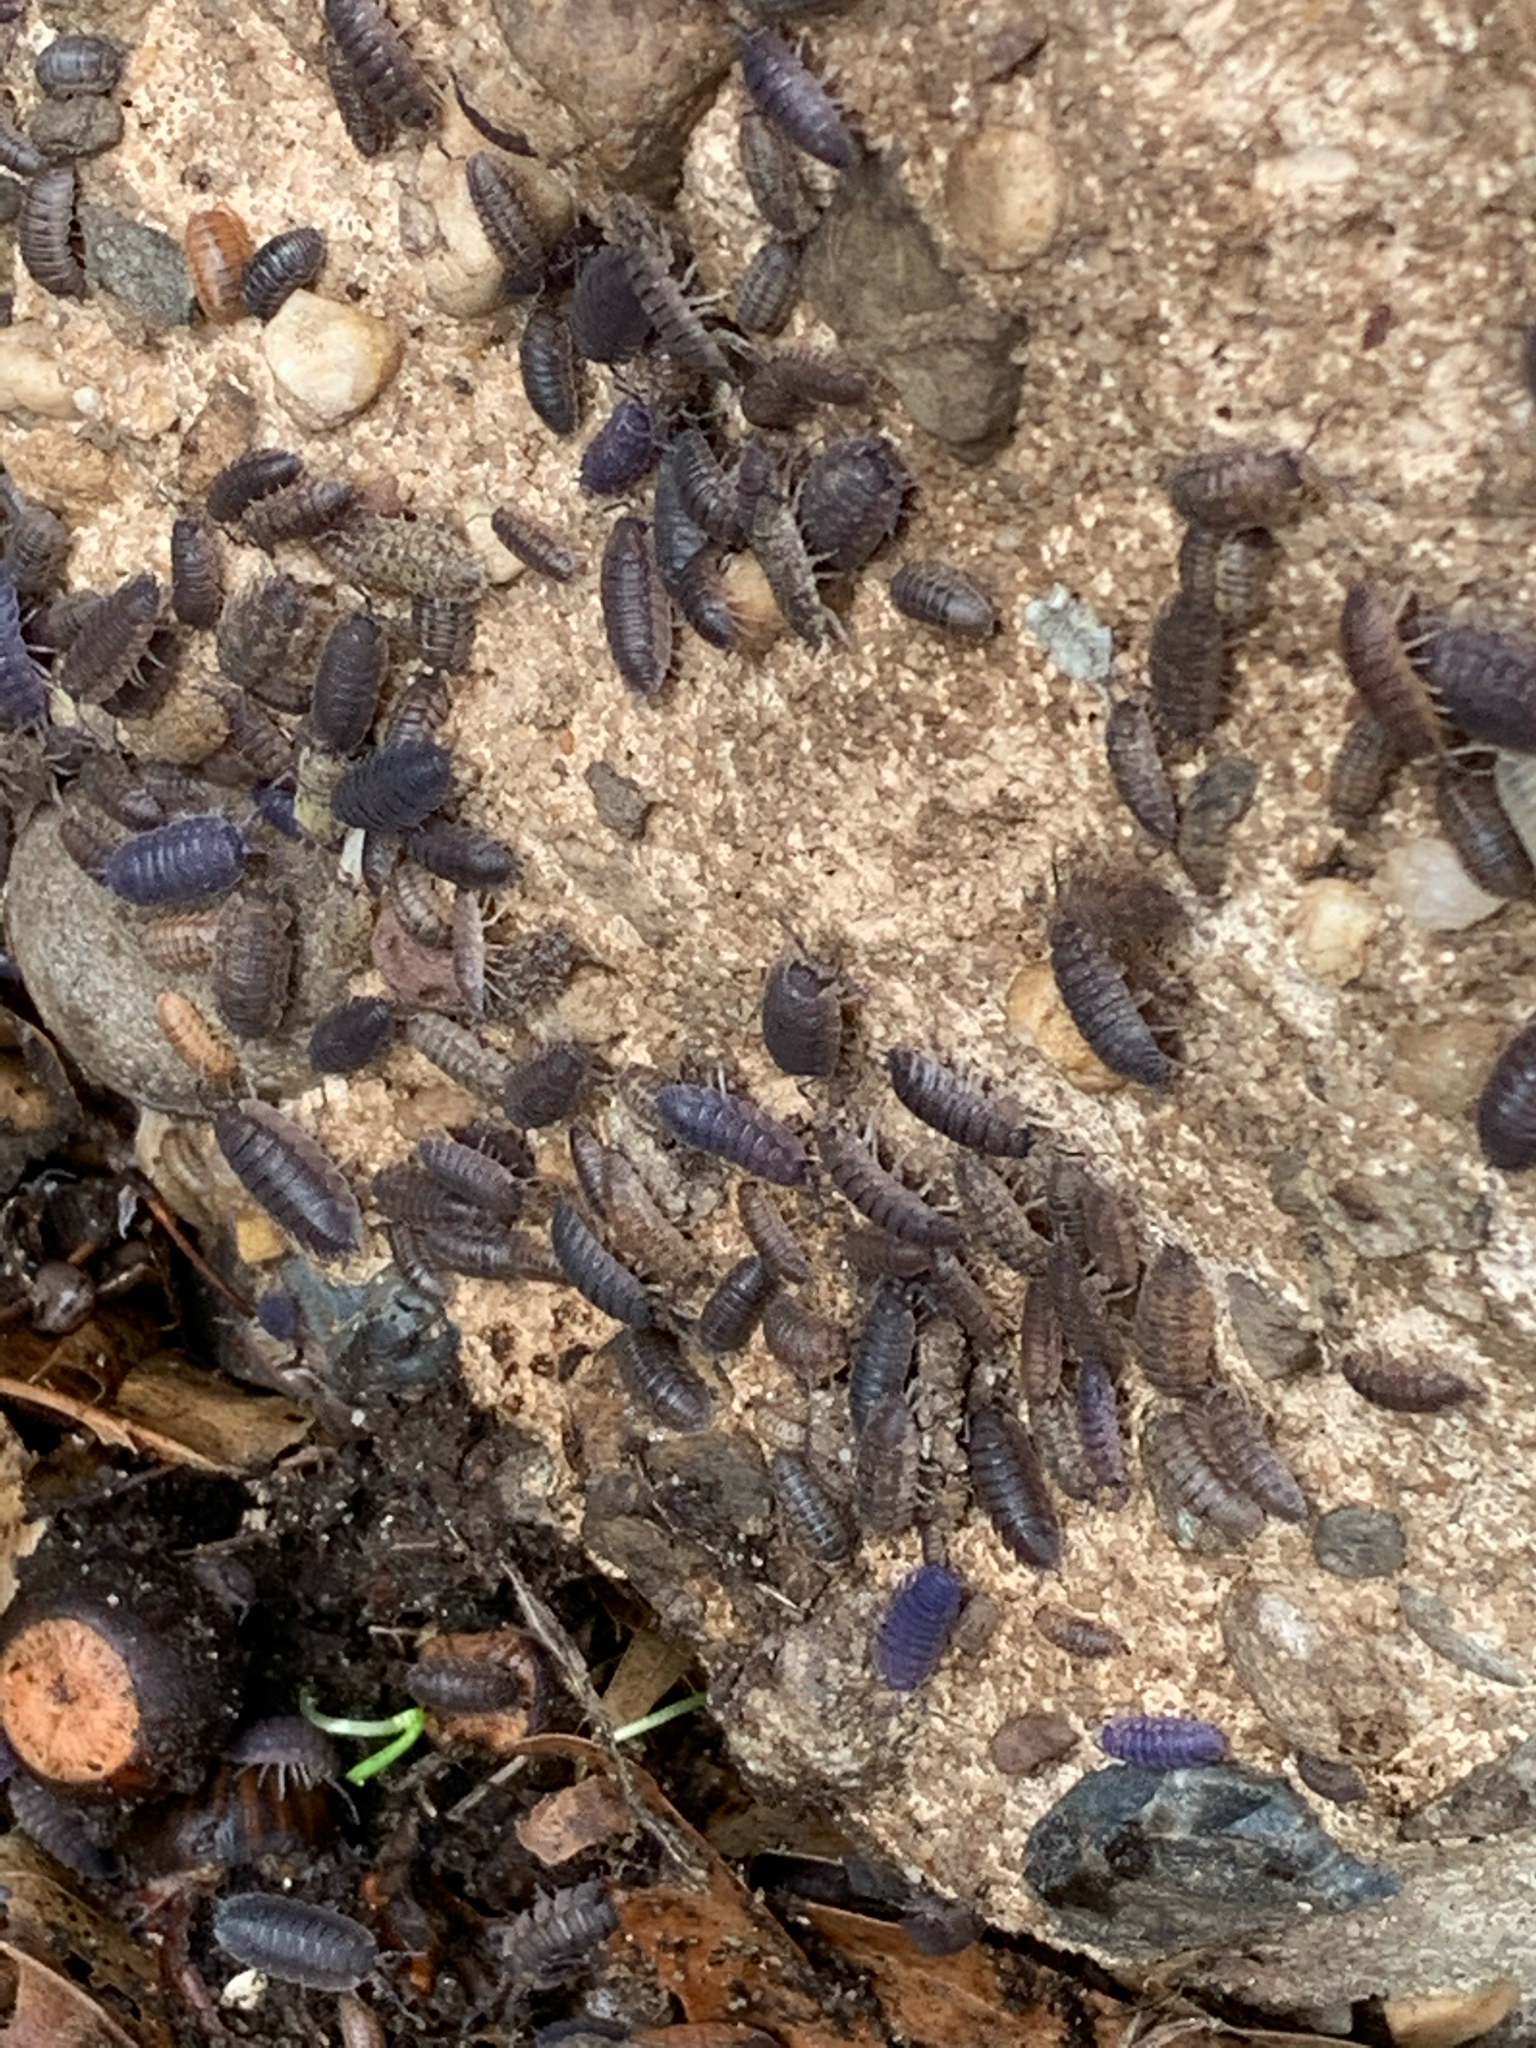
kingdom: Animalia
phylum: Arthropoda
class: Malacostraca
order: Isopoda
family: Porcellionidae
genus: Porcellio
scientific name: Porcellio scaber
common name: Common rough woodlouse
